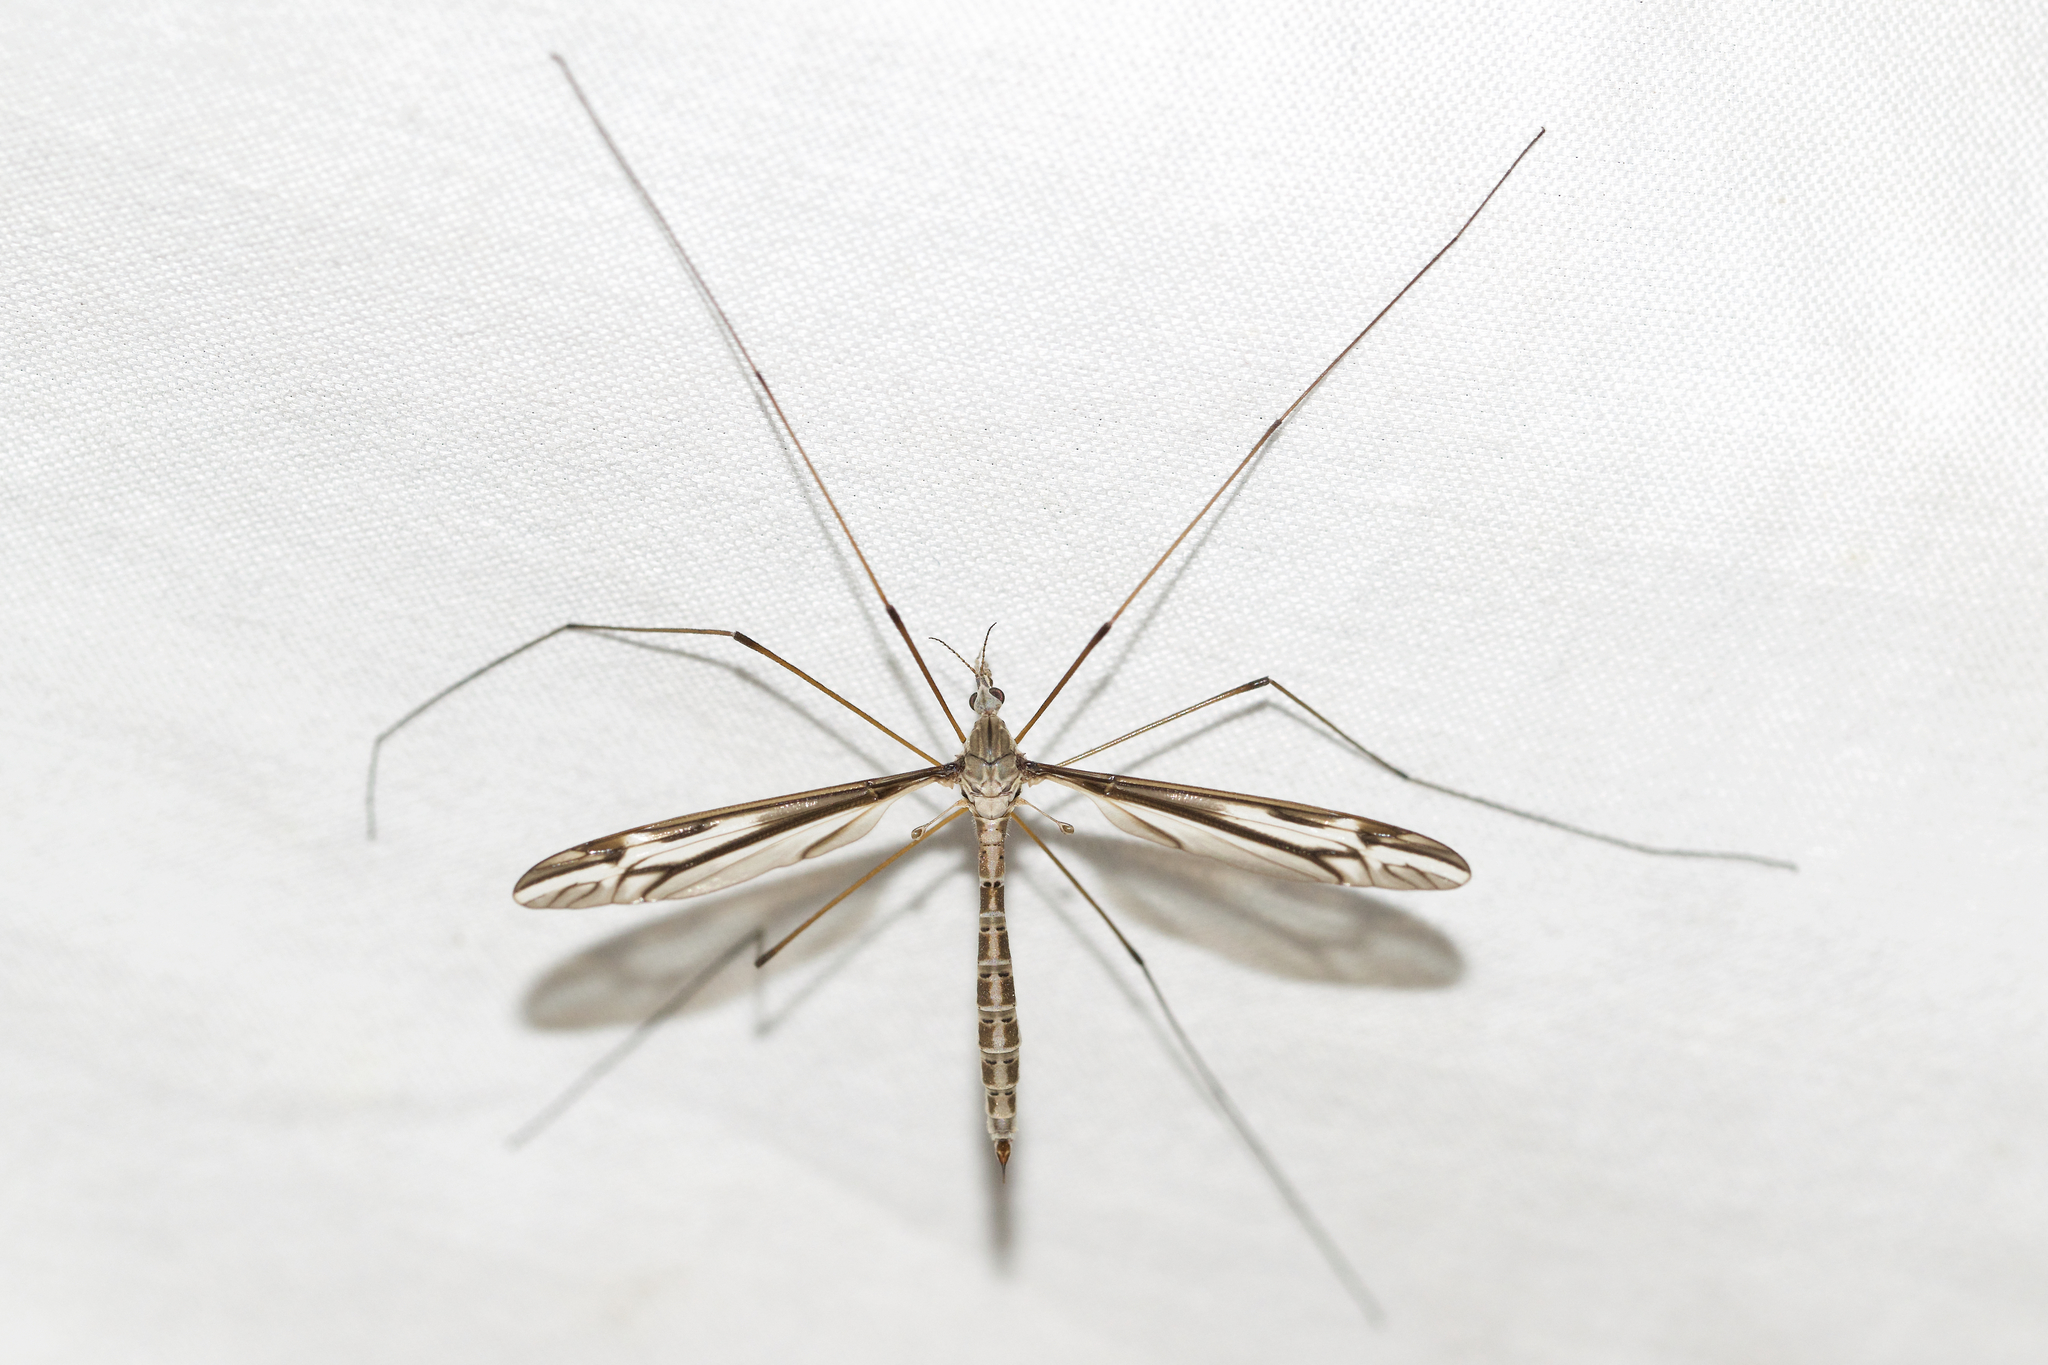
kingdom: Animalia
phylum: Arthropoda
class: Insecta
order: Diptera
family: Tipulidae
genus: Tipula
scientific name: Tipula furca
